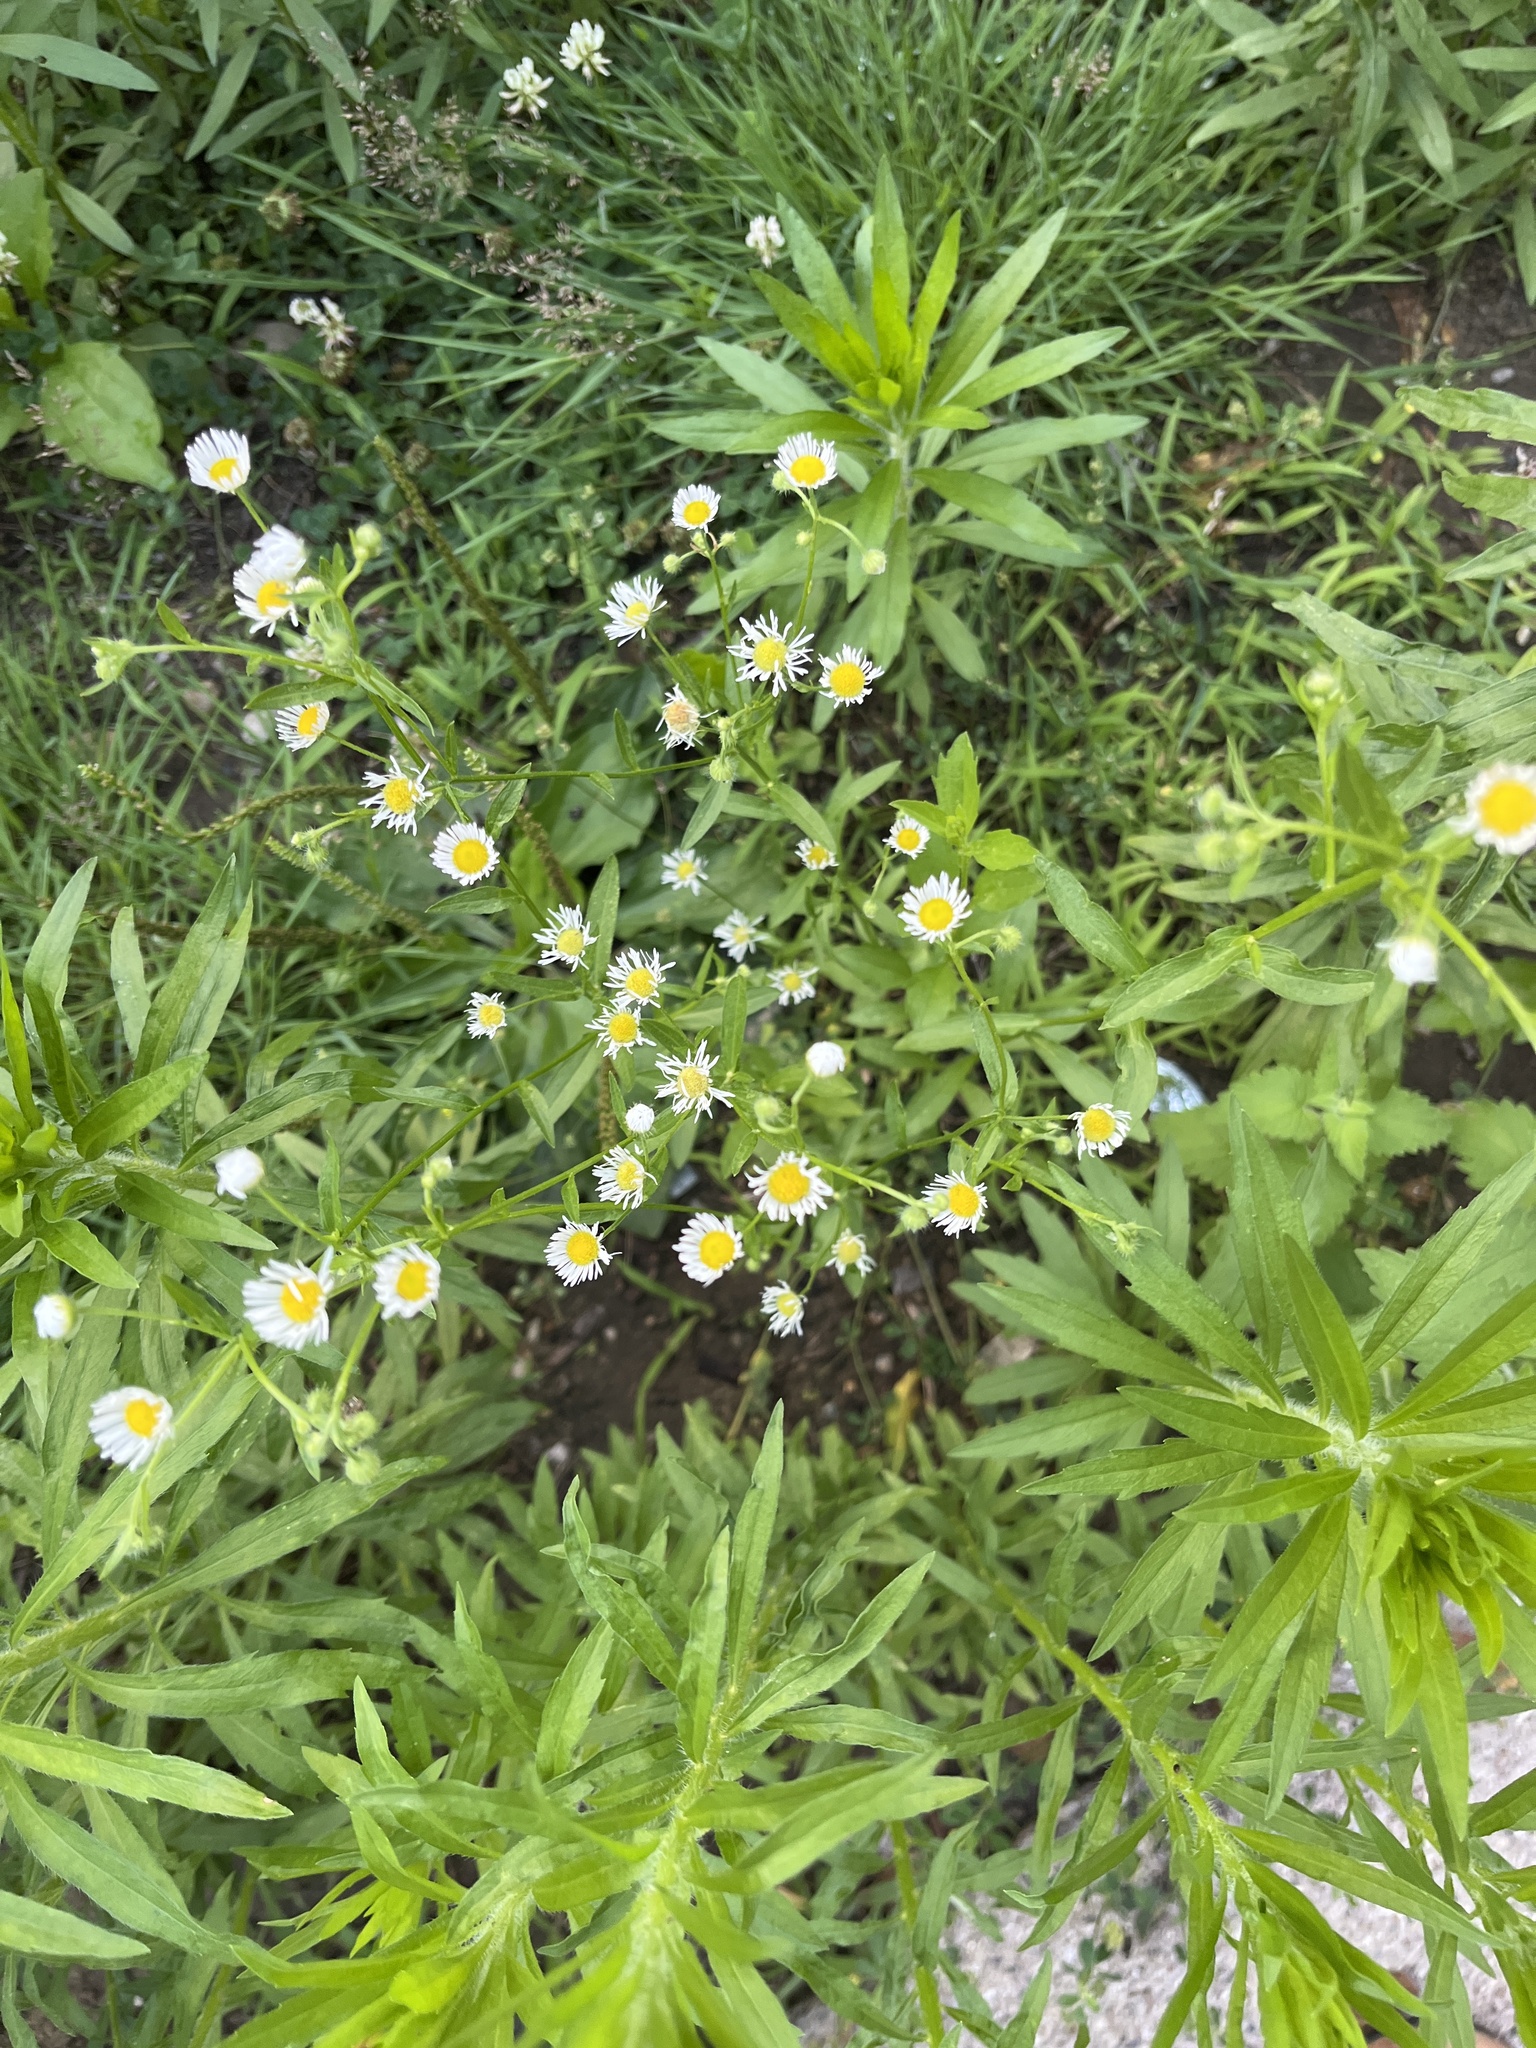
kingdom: Plantae
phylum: Tracheophyta
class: Magnoliopsida
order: Asterales
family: Asteraceae
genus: Erigeron
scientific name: Erigeron strigosus
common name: Common eastern fleabane
